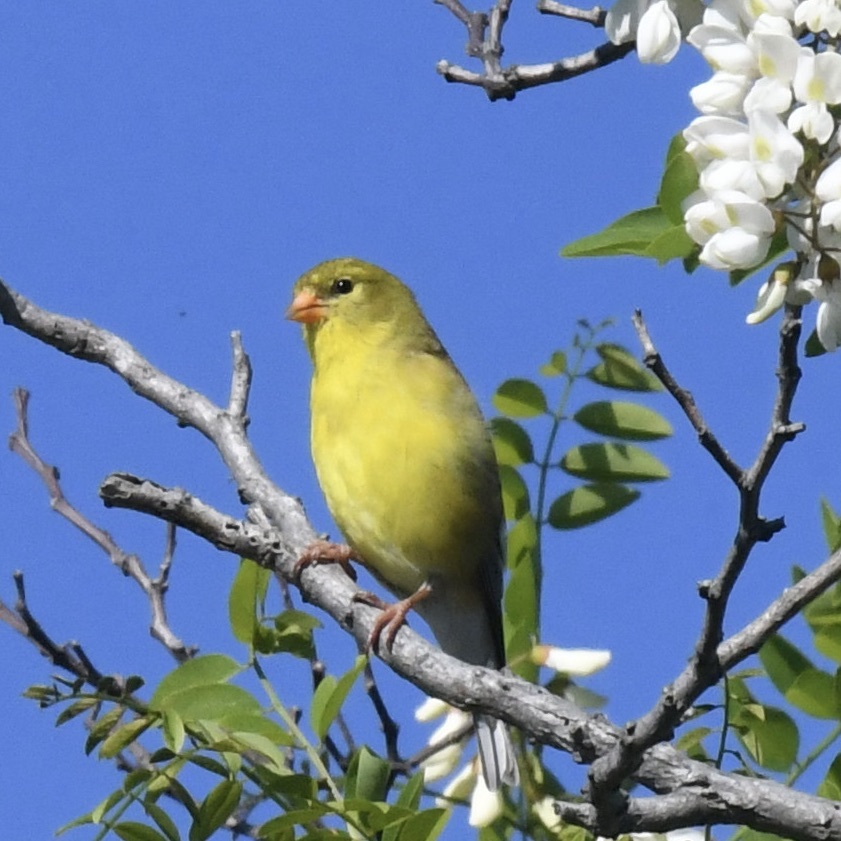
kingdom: Animalia
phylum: Chordata
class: Aves
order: Passeriformes
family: Fringillidae
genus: Spinus
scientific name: Spinus tristis
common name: American goldfinch
